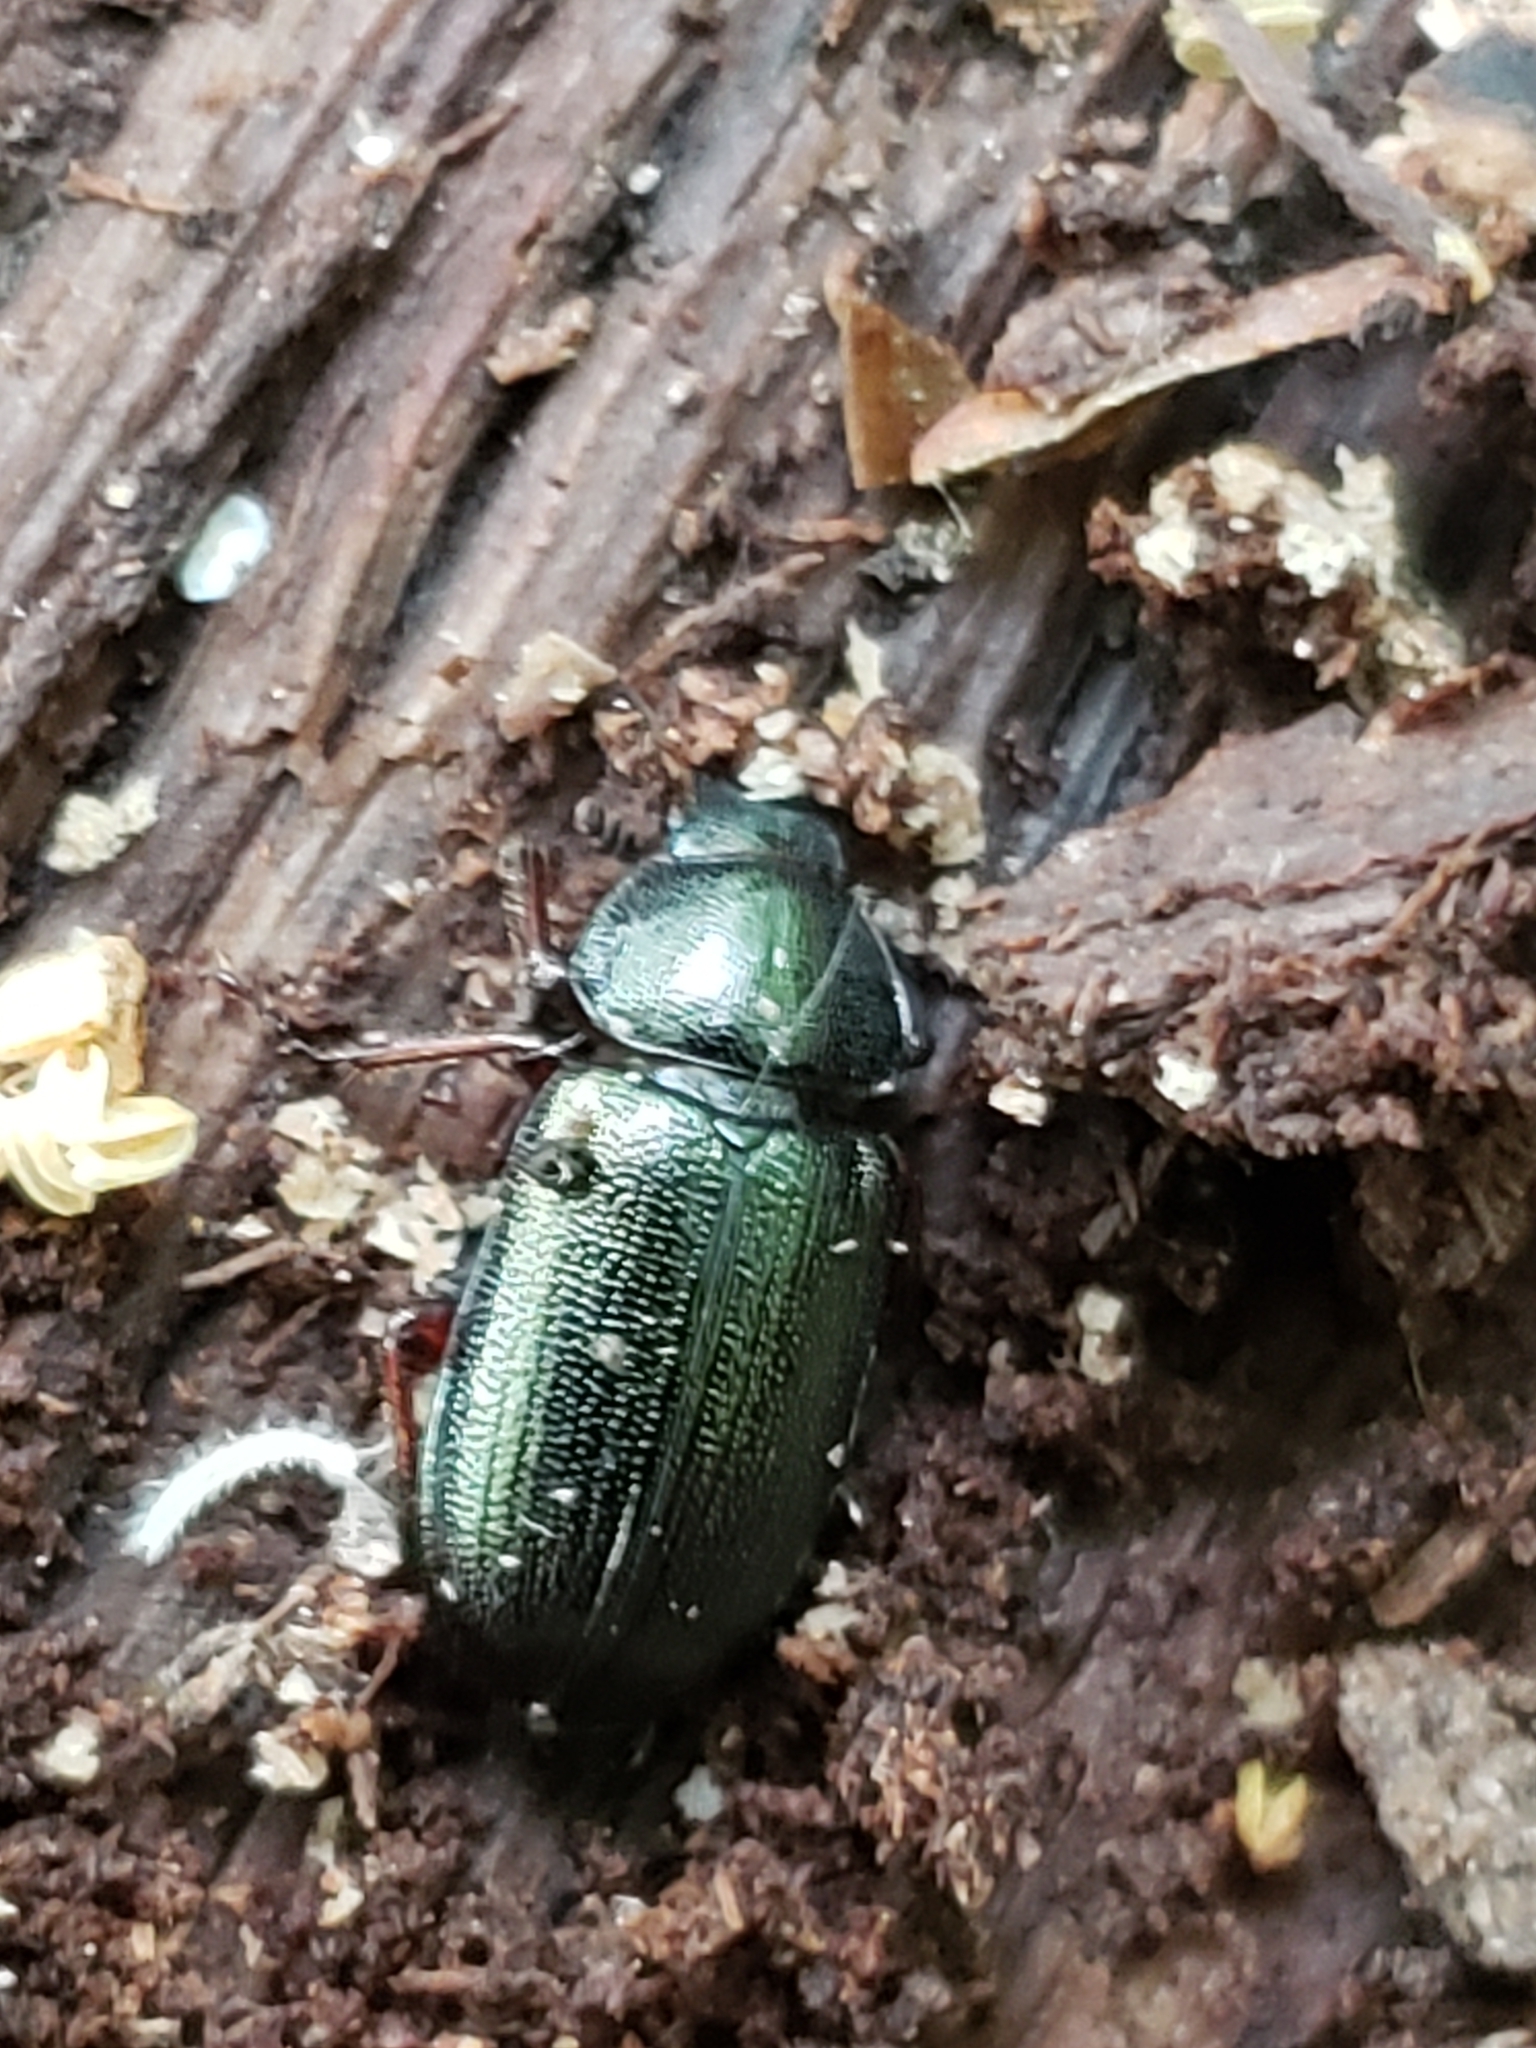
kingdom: Animalia
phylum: Arthropoda
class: Insecta
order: Coleoptera
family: Lucanidae
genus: Platycerus
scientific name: Platycerus quercus
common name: Oak stag beetle
